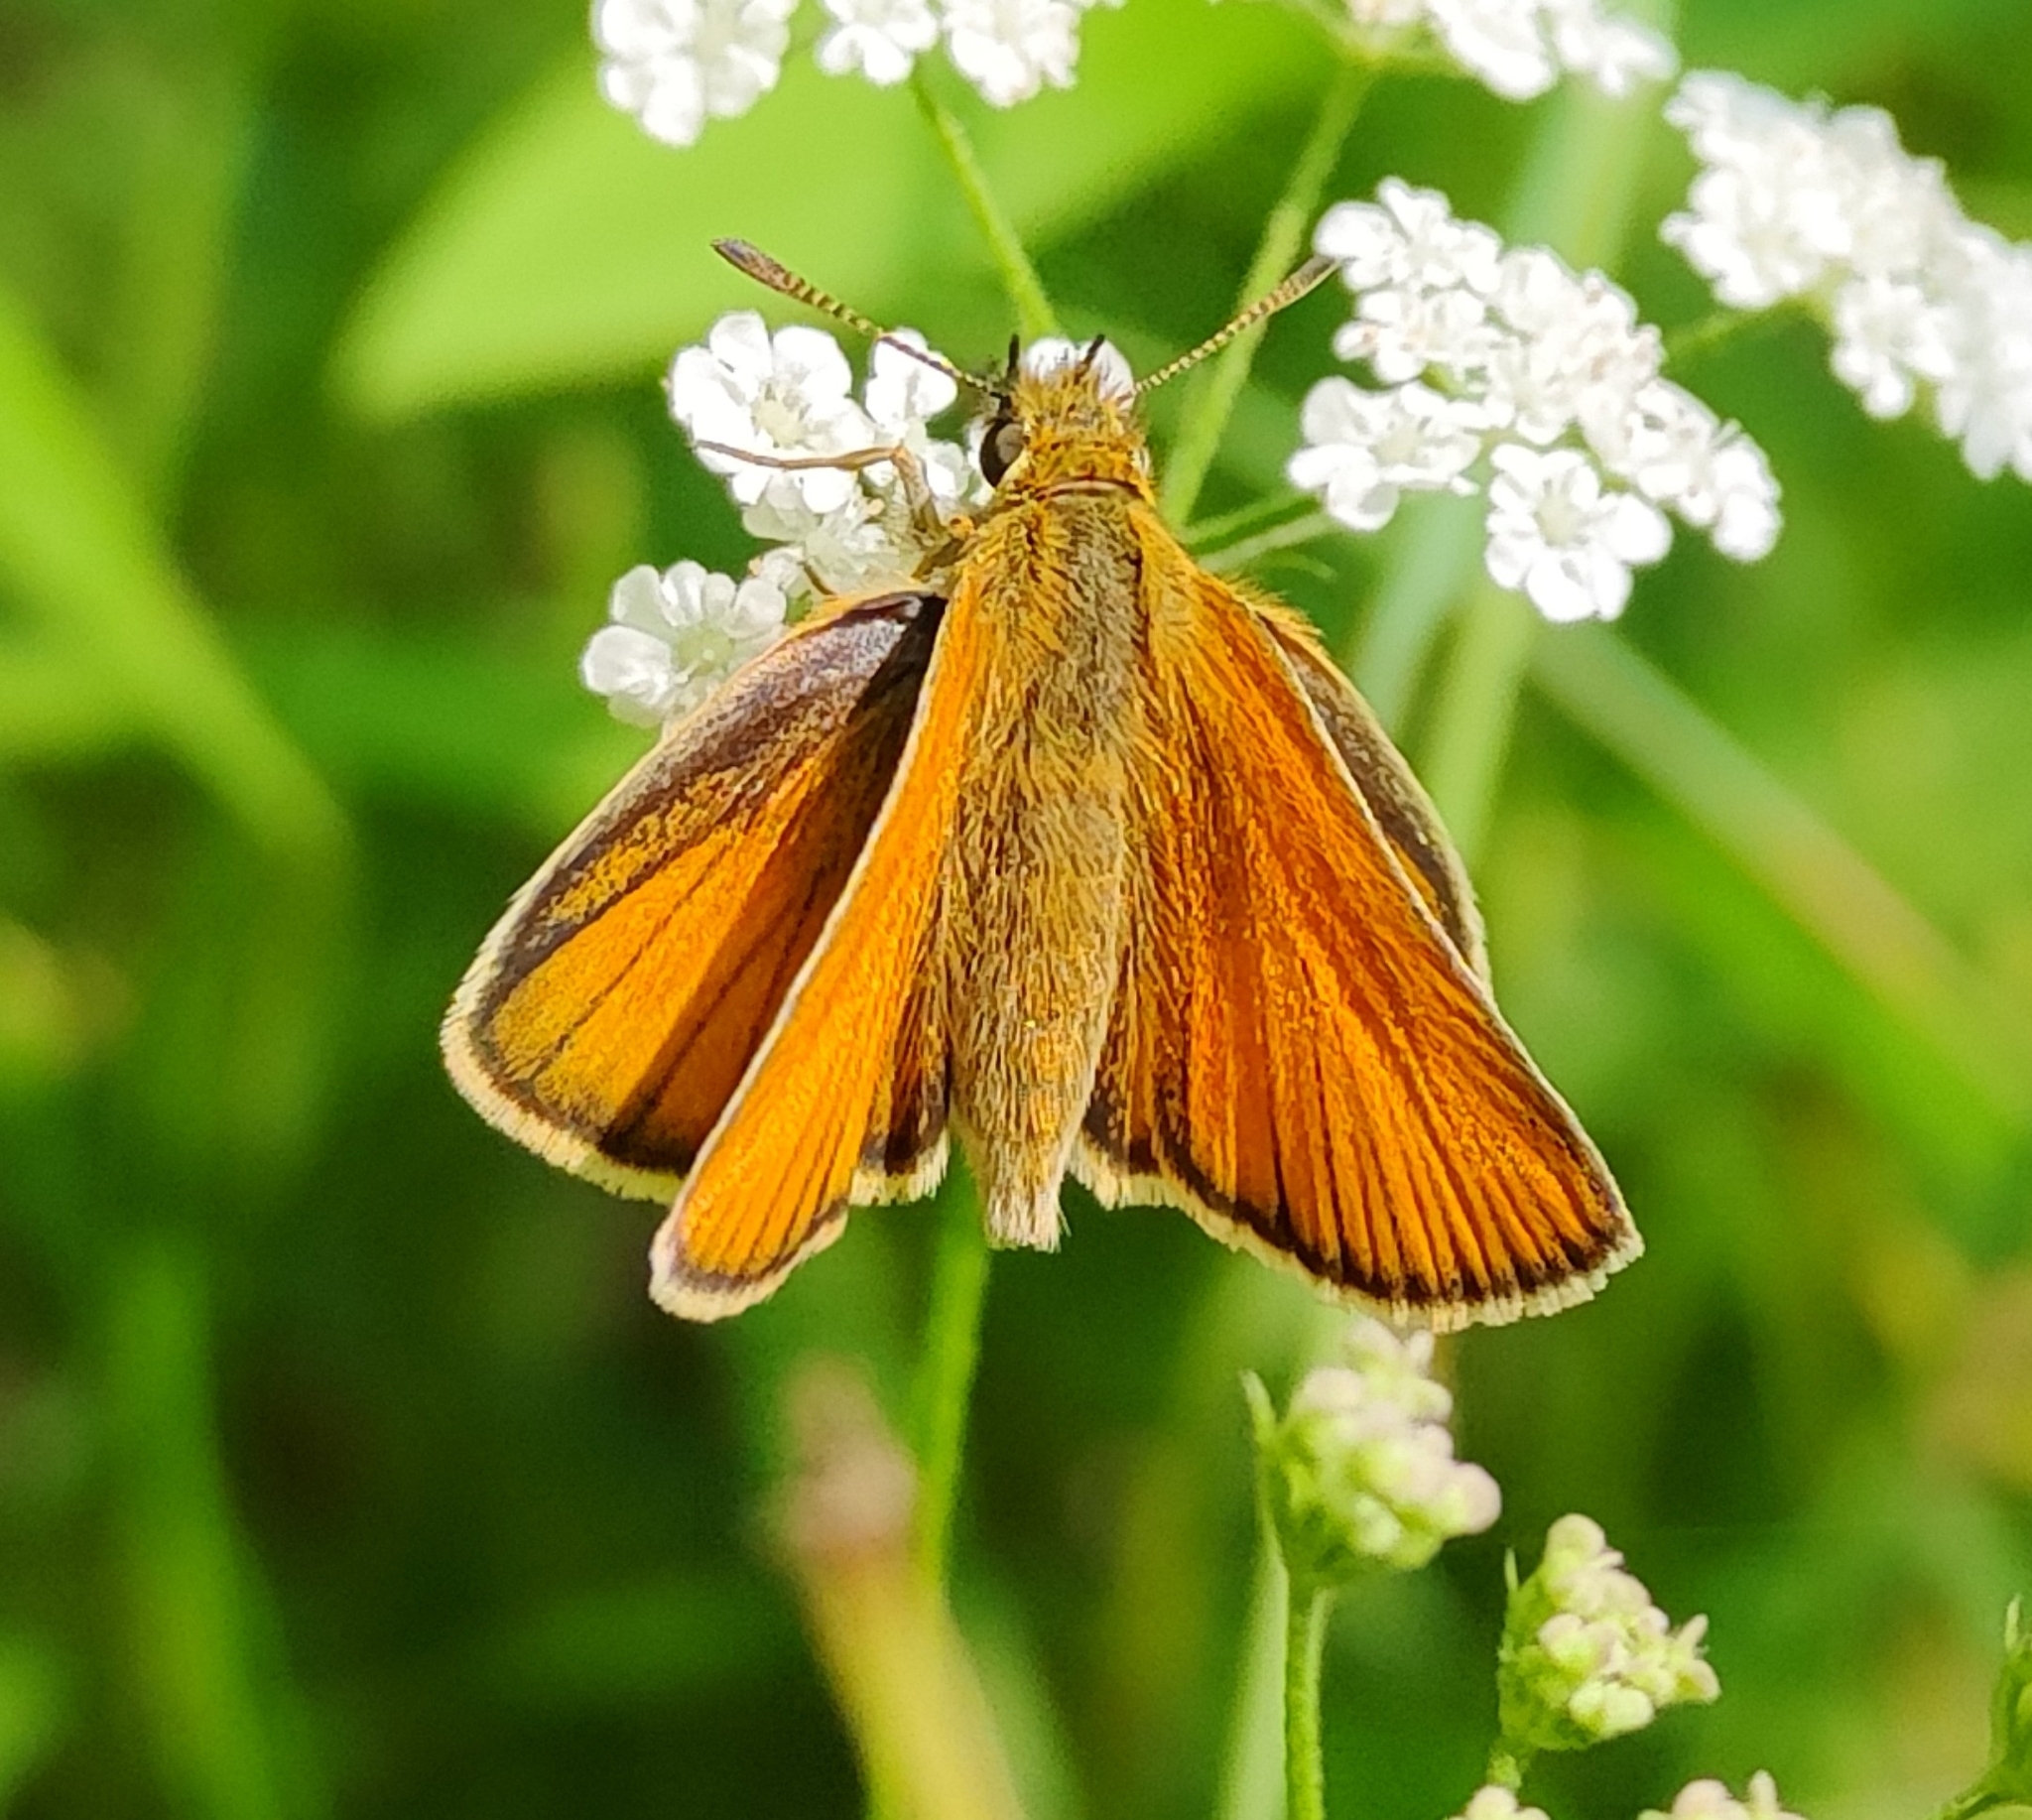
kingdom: Animalia
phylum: Arthropoda
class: Insecta
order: Lepidoptera
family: Hesperiidae
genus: Thymelicus
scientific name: Thymelicus lineola
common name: Essex skipper
